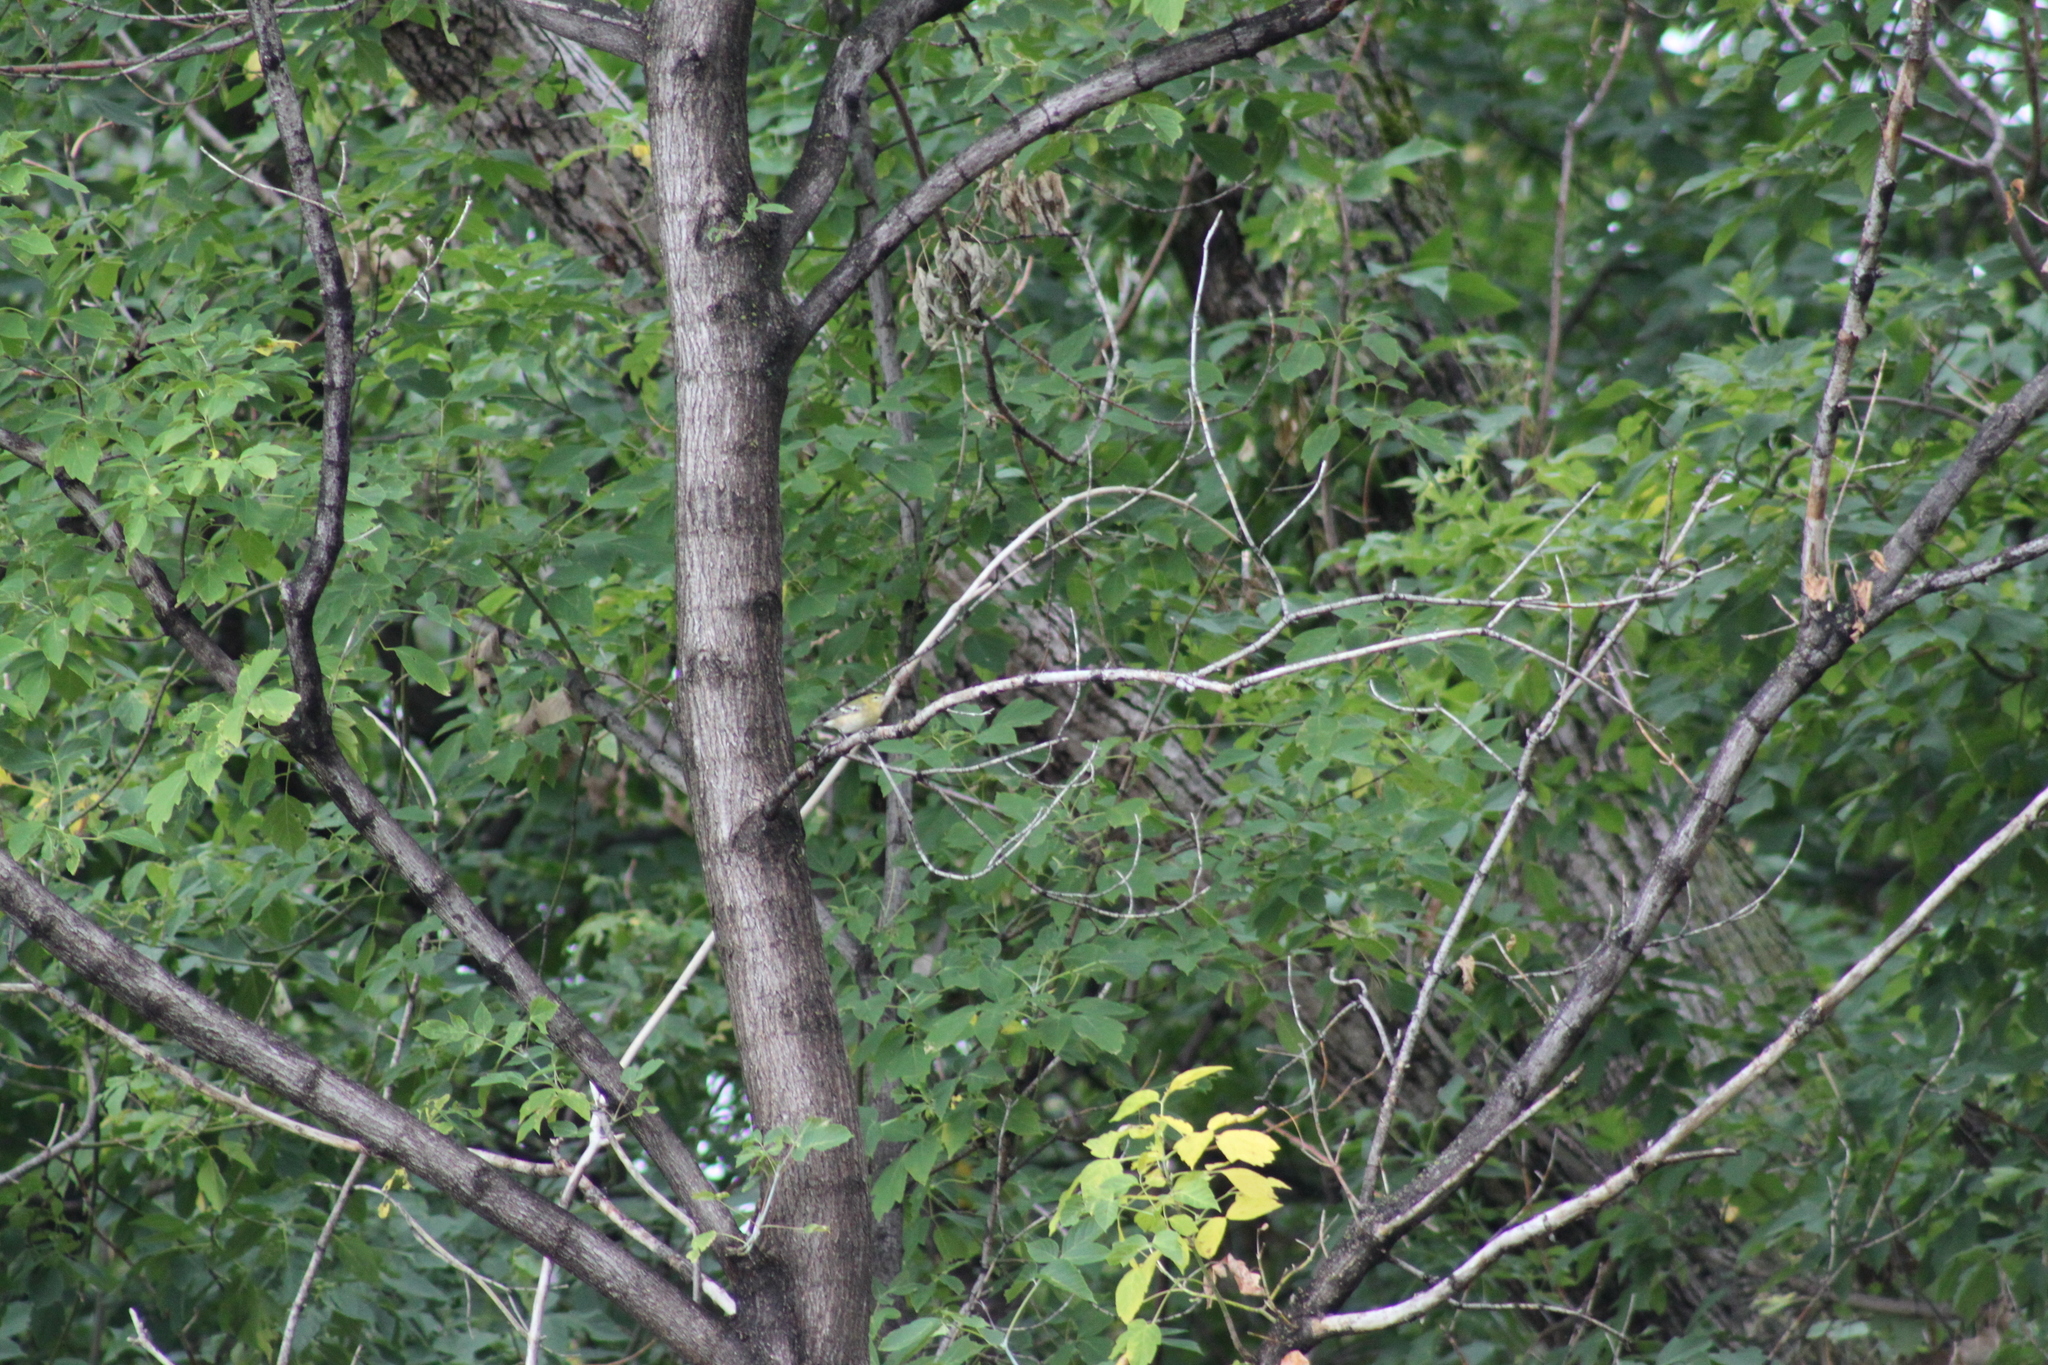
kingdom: Animalia
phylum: Chordata
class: Aves
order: Passeriformes
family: Parulidae
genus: Setophaga
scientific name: Setophaga castanea
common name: Bay-breasted warbler
